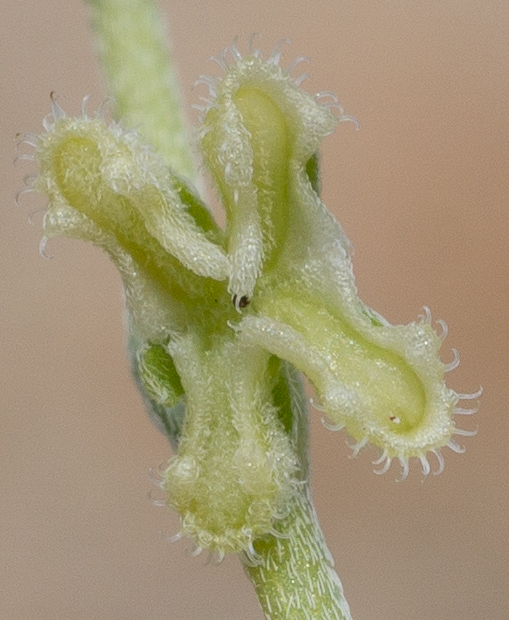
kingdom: Plantae
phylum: Tracheophyta
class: Magnoliopsida
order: Boraginales
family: Boraginaceae
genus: Pectocarya
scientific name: Pectocarya penicillata
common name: Short-leaved combseed
